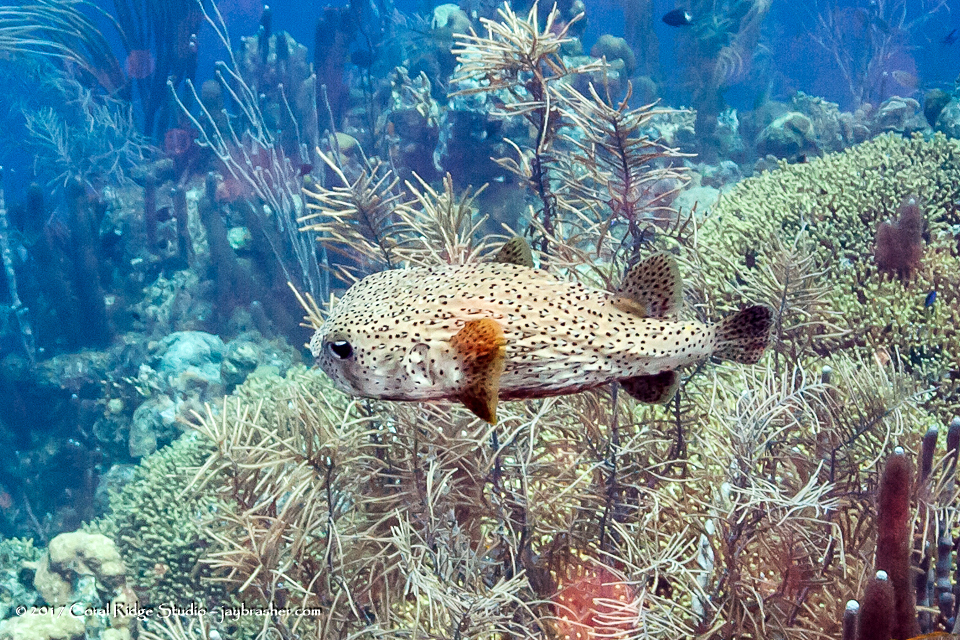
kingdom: Animalia
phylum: Chordata
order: Tetraodontiformes
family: Diodontidae
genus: Diodon
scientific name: Diodon hystrix
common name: Giant porcupinefish
